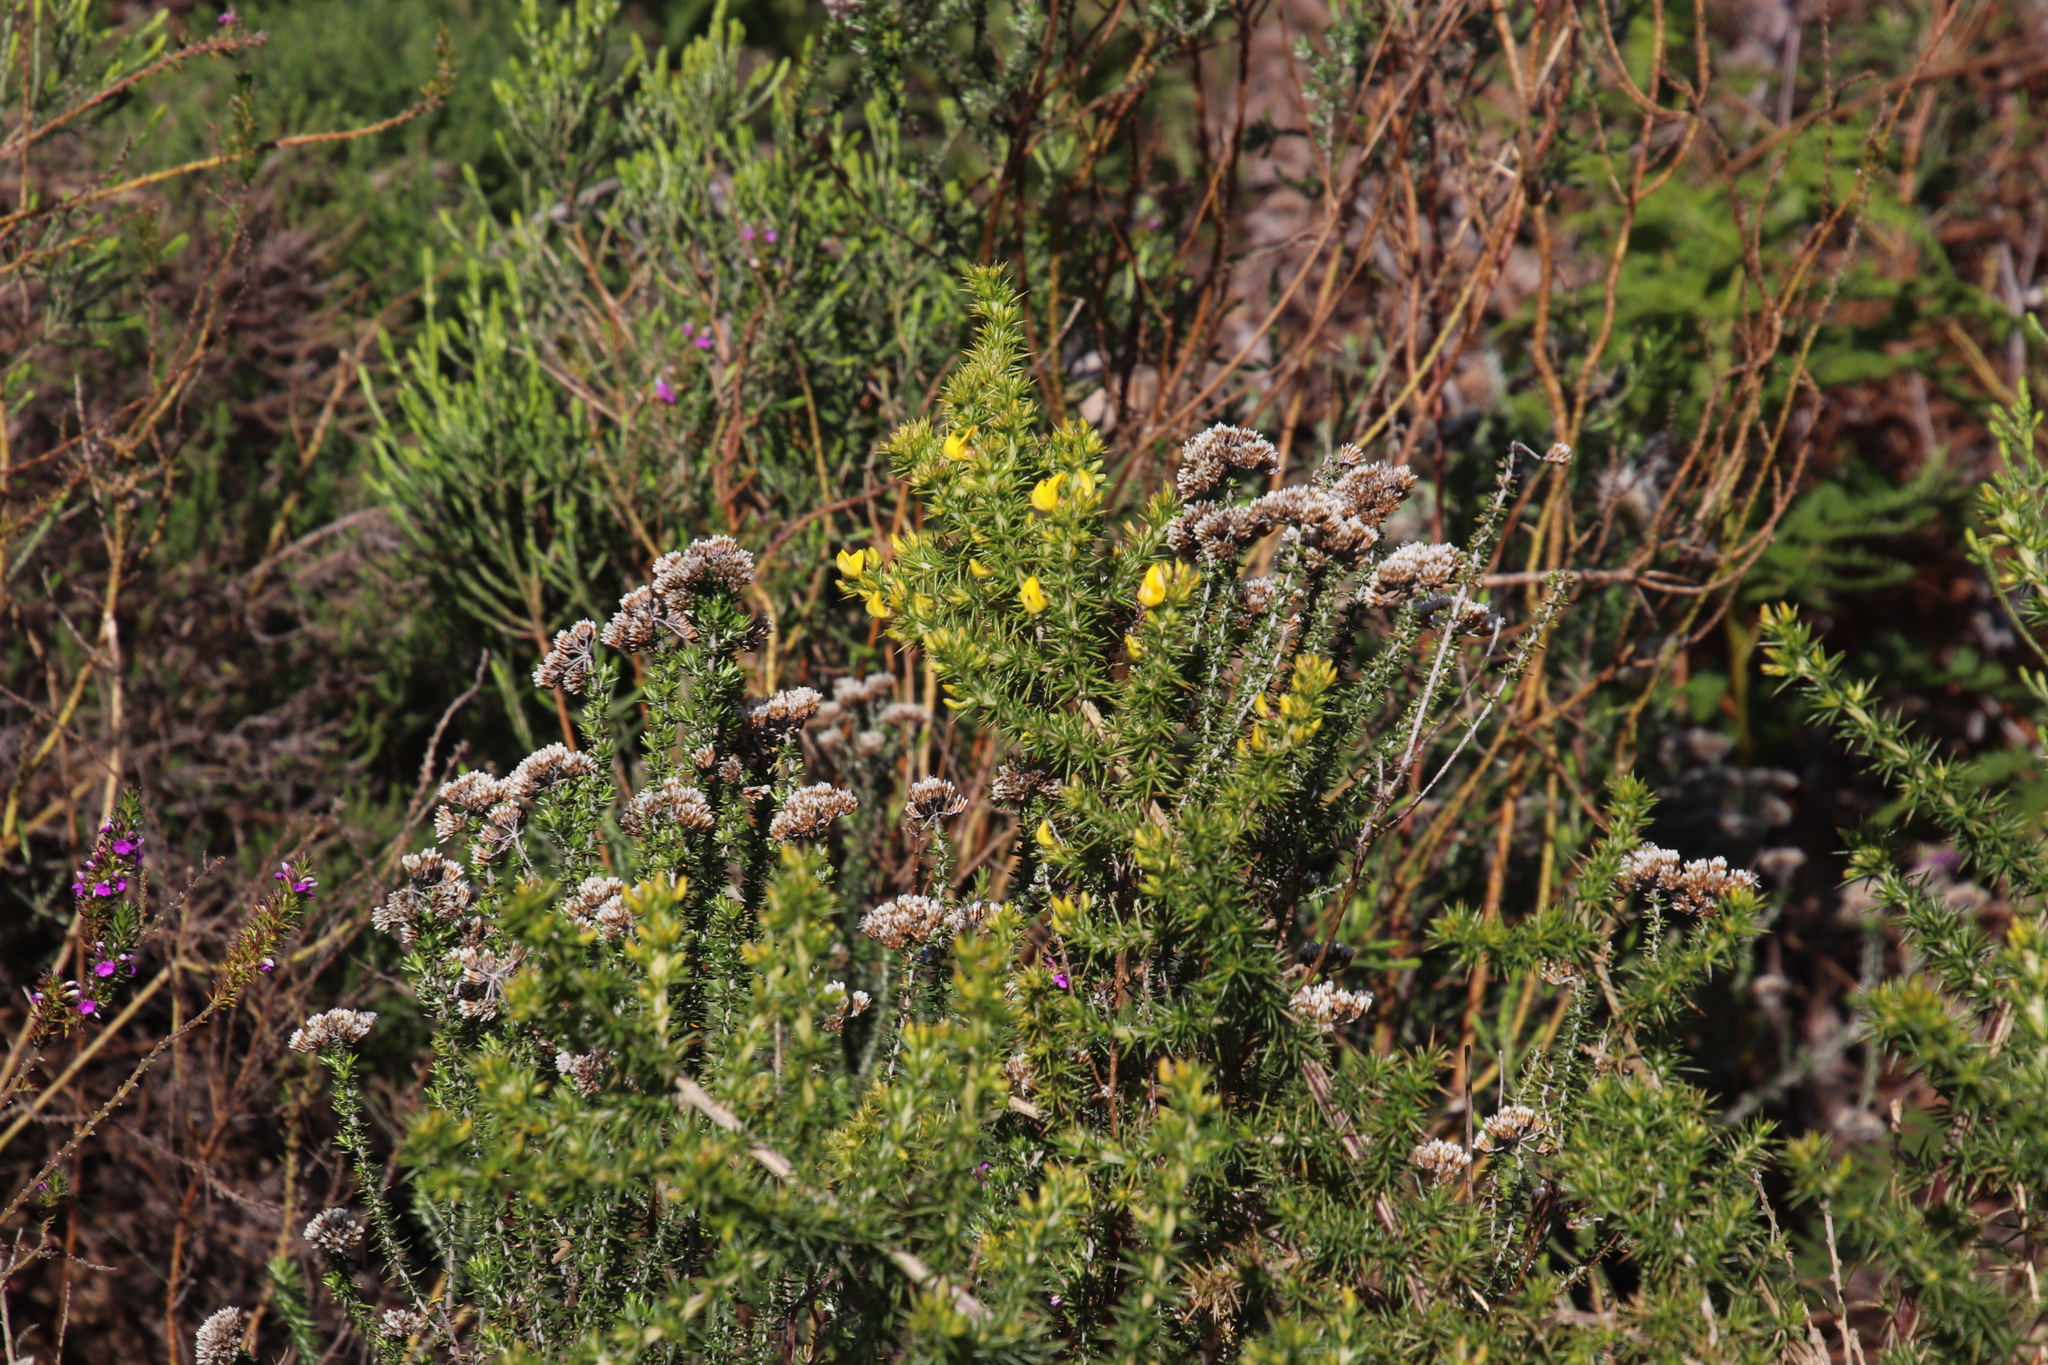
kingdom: Plantae
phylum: Tracheophyta
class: Magnoliopsida
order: Fabales
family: Fabaceae
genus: Aspalathus
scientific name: Aspalathus astroites
